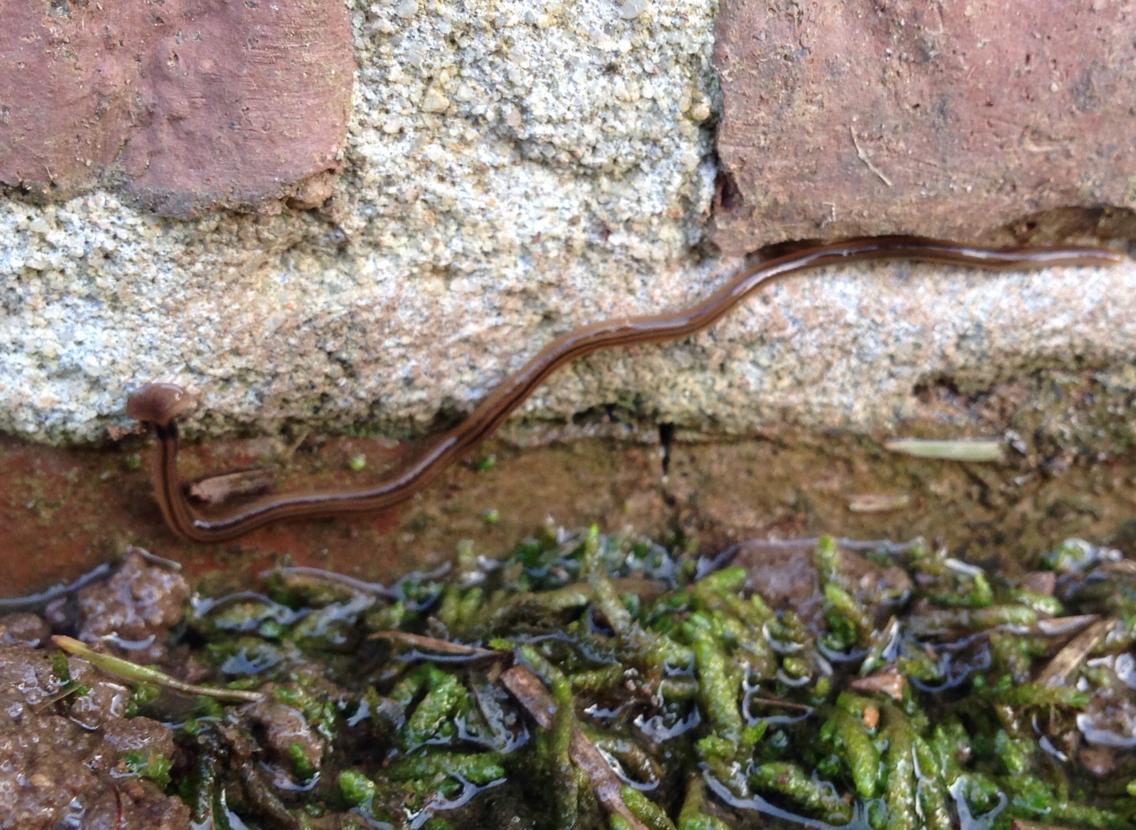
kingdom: Animalia
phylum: Platyhelminthes
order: Tricladida
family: Geoplanidae
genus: Bipalium
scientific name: Bipalium kewense
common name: Hammerhead flatworm
